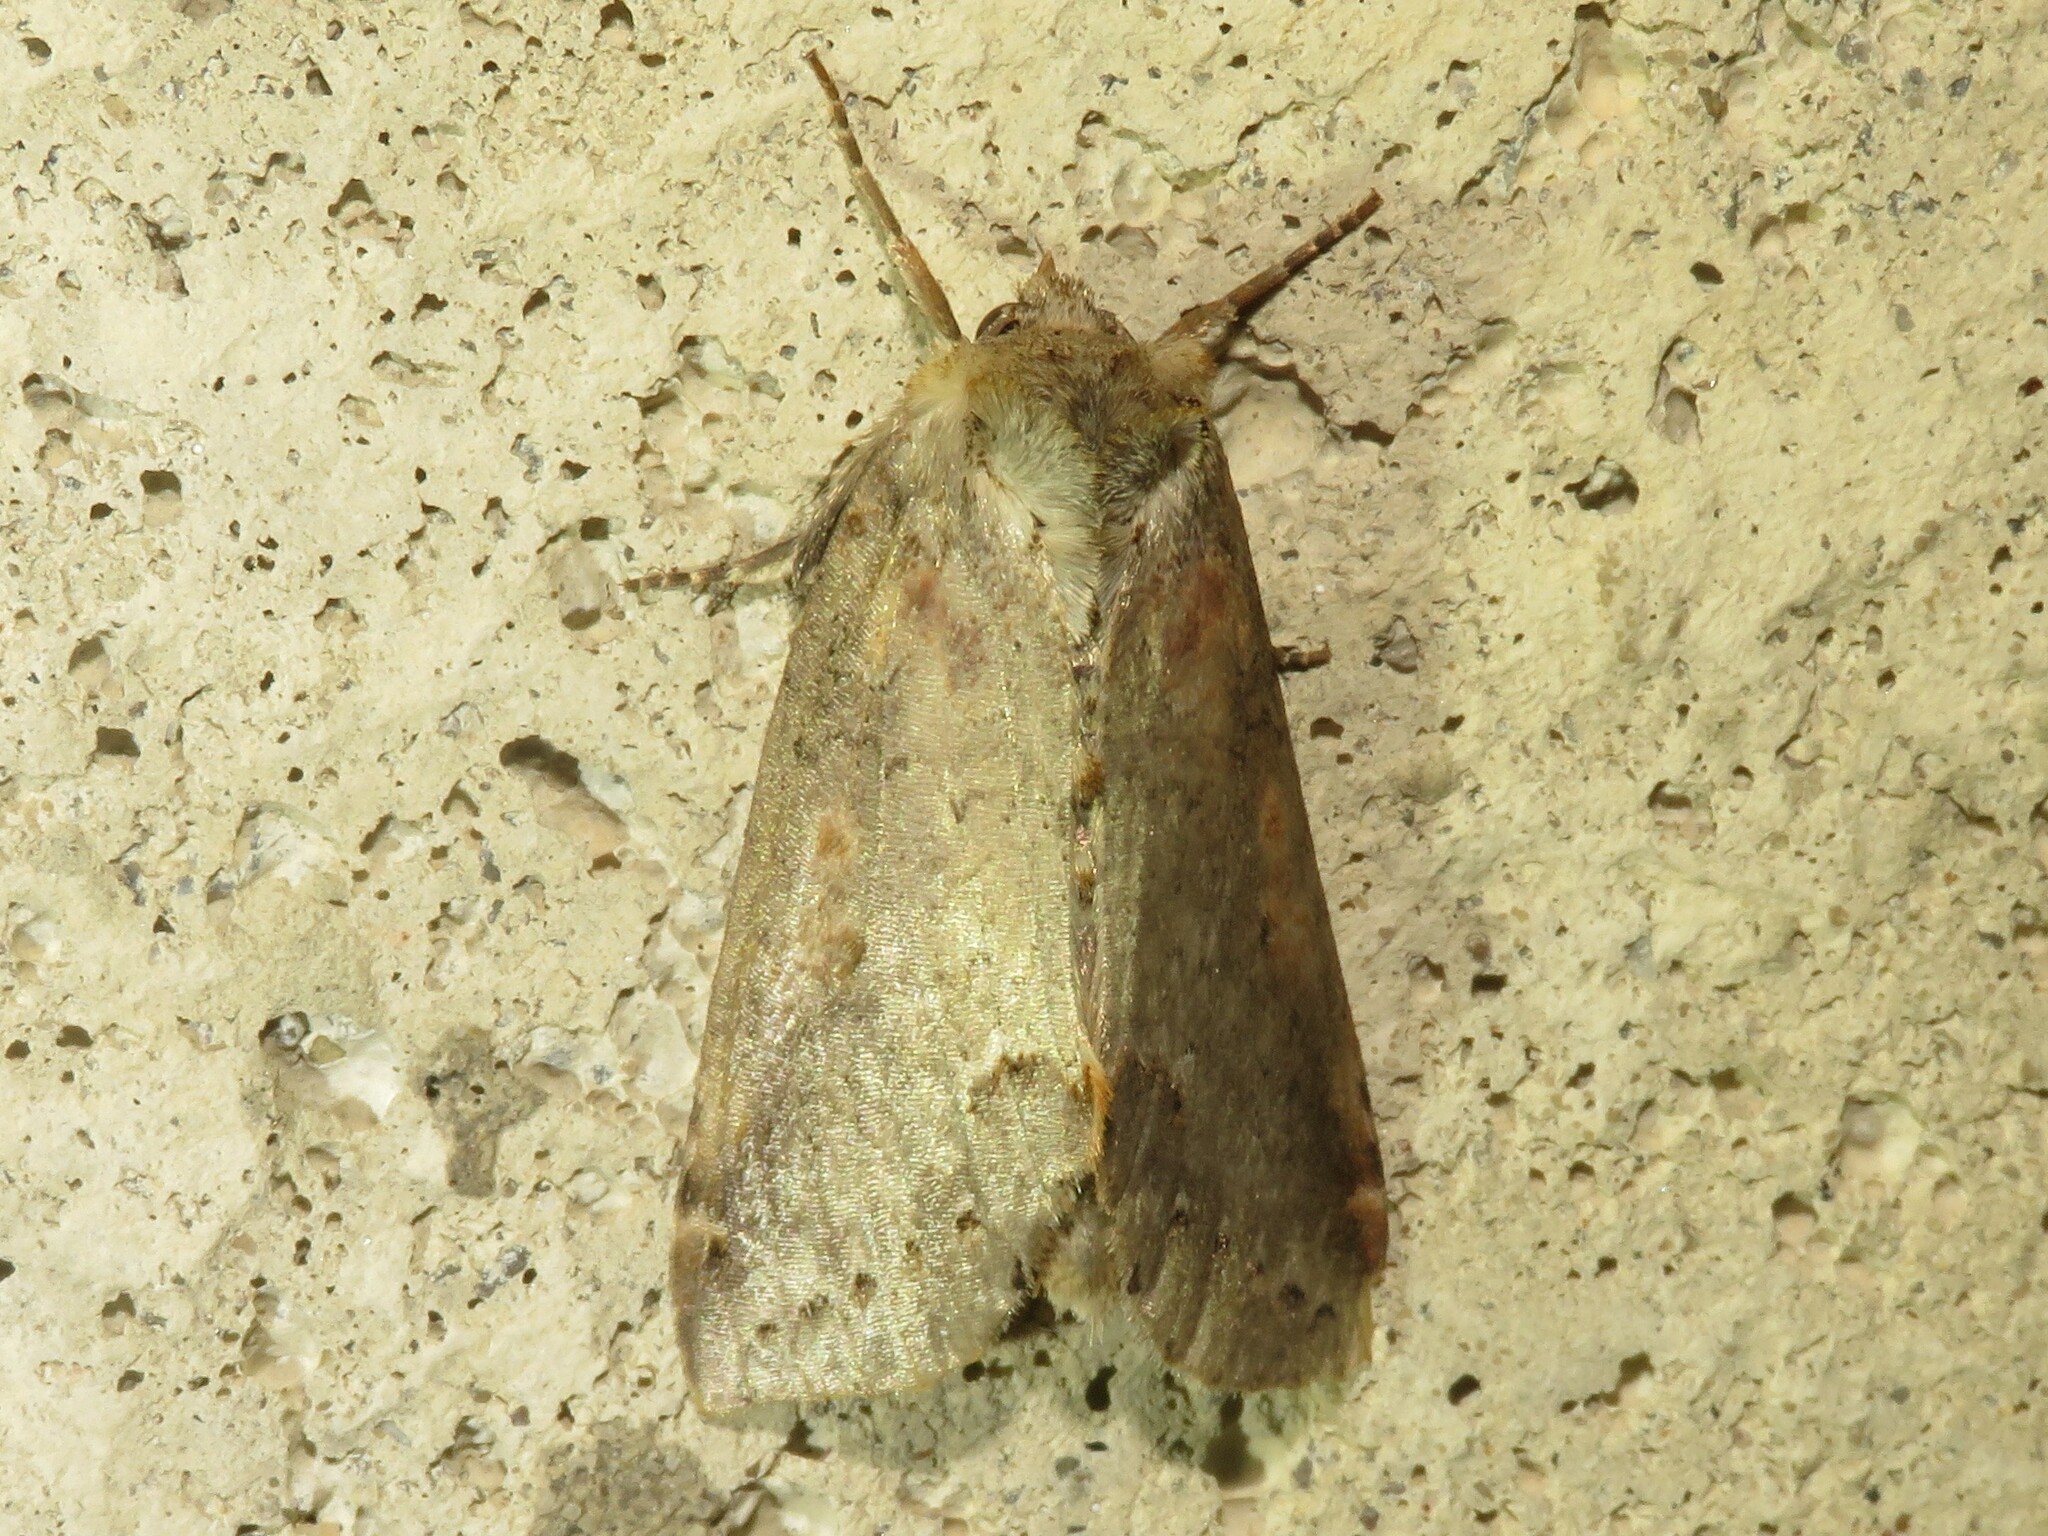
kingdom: Animalia
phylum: Arthropoda
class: Insecta
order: Lepidoptera
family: Drepanidae
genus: Pseudothyatira
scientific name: Pseudothyatira cymatophoroides
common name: Tufted thyatirid moth
